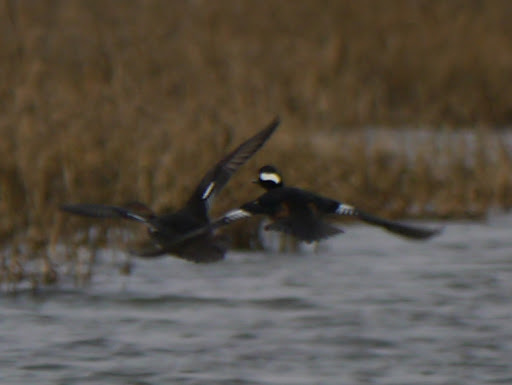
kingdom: Animalia
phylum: Chordata
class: Aves
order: Anseriformes
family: Anatidae
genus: Lophodytes
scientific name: Lophodytes cucullatus
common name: Hooded merganser
